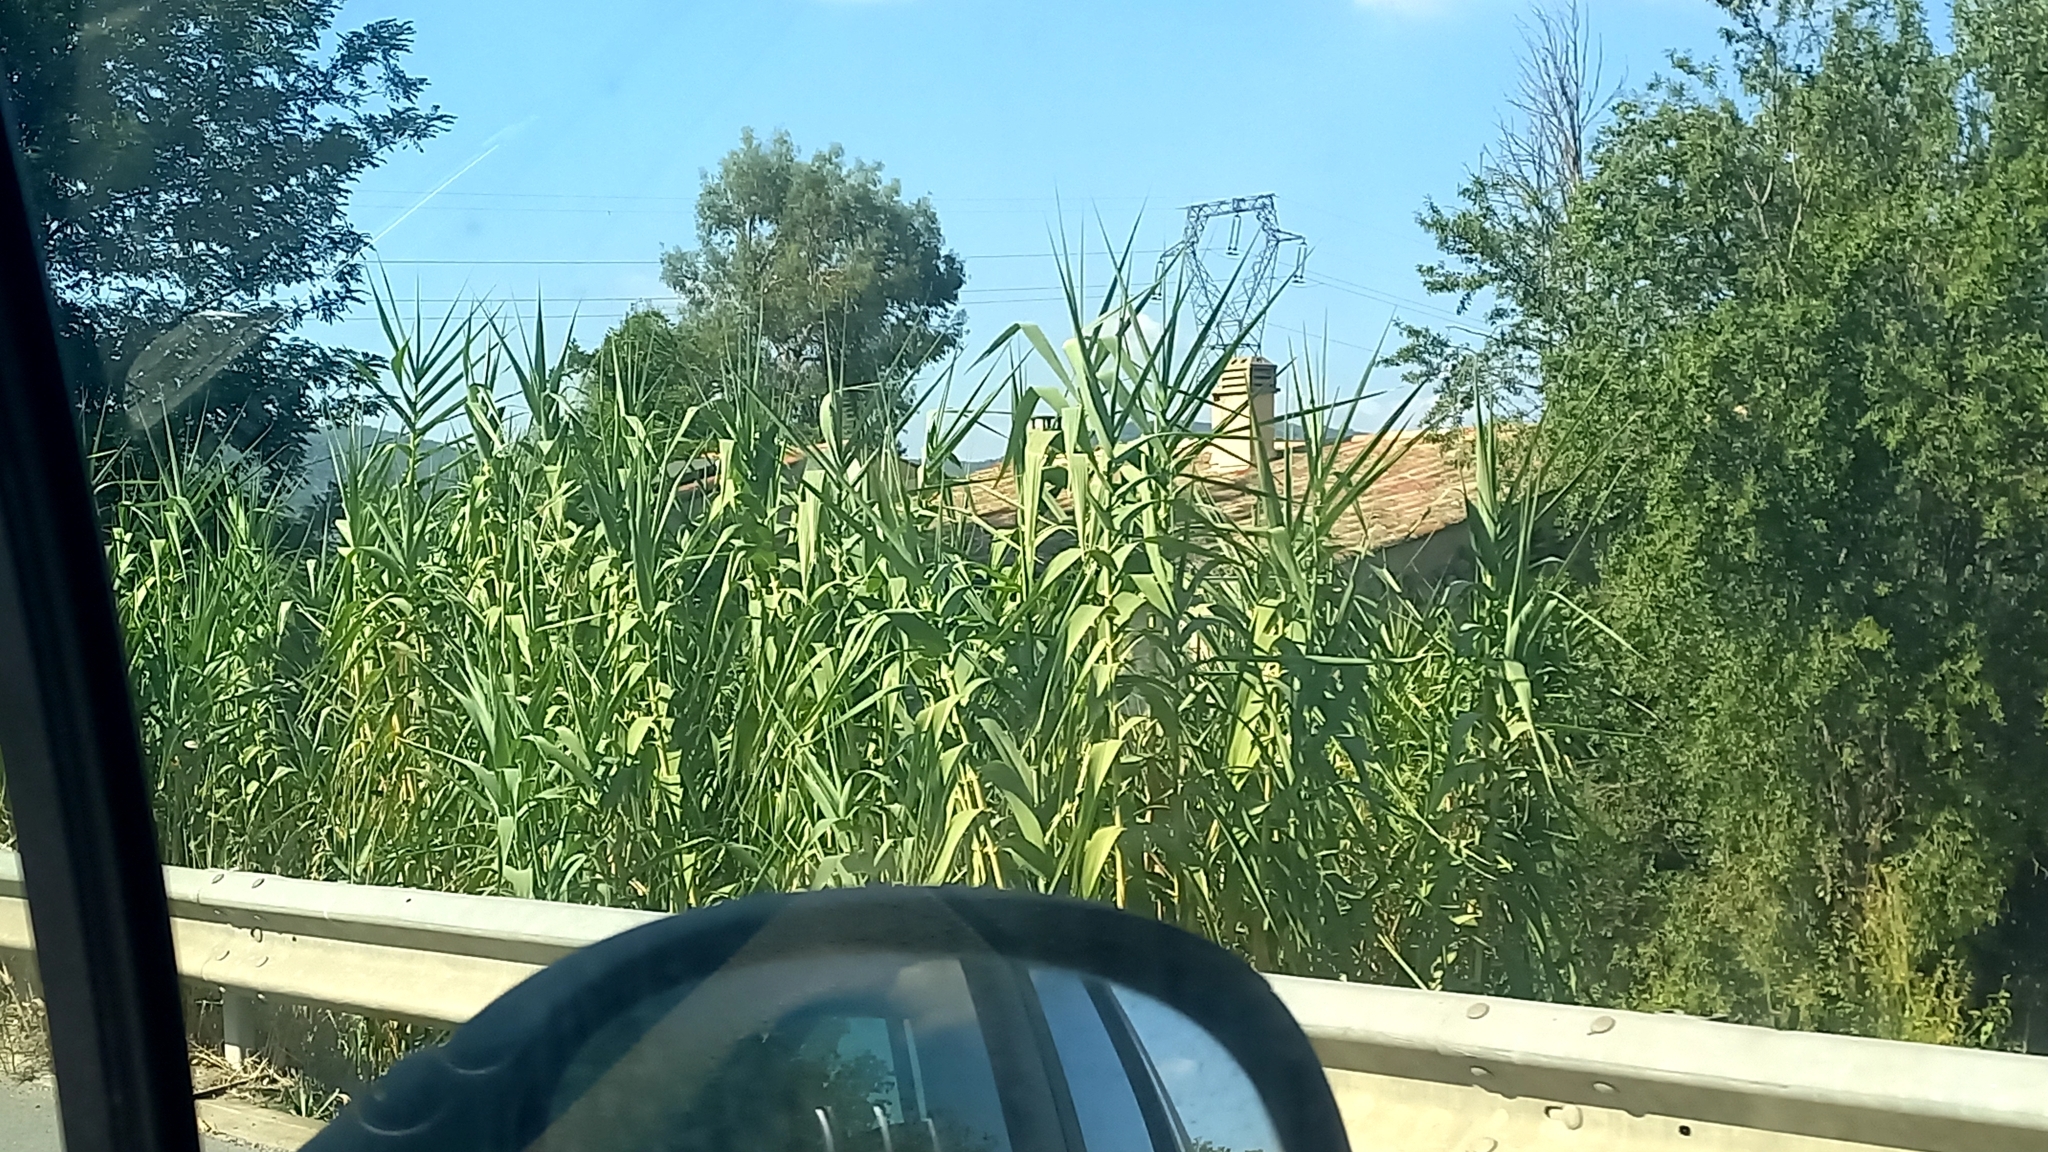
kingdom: Plantae
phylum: Tracheophyta
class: Liliopsida
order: Poales
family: Poaceae
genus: Arundo
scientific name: Arundo donax
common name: Giant reed
